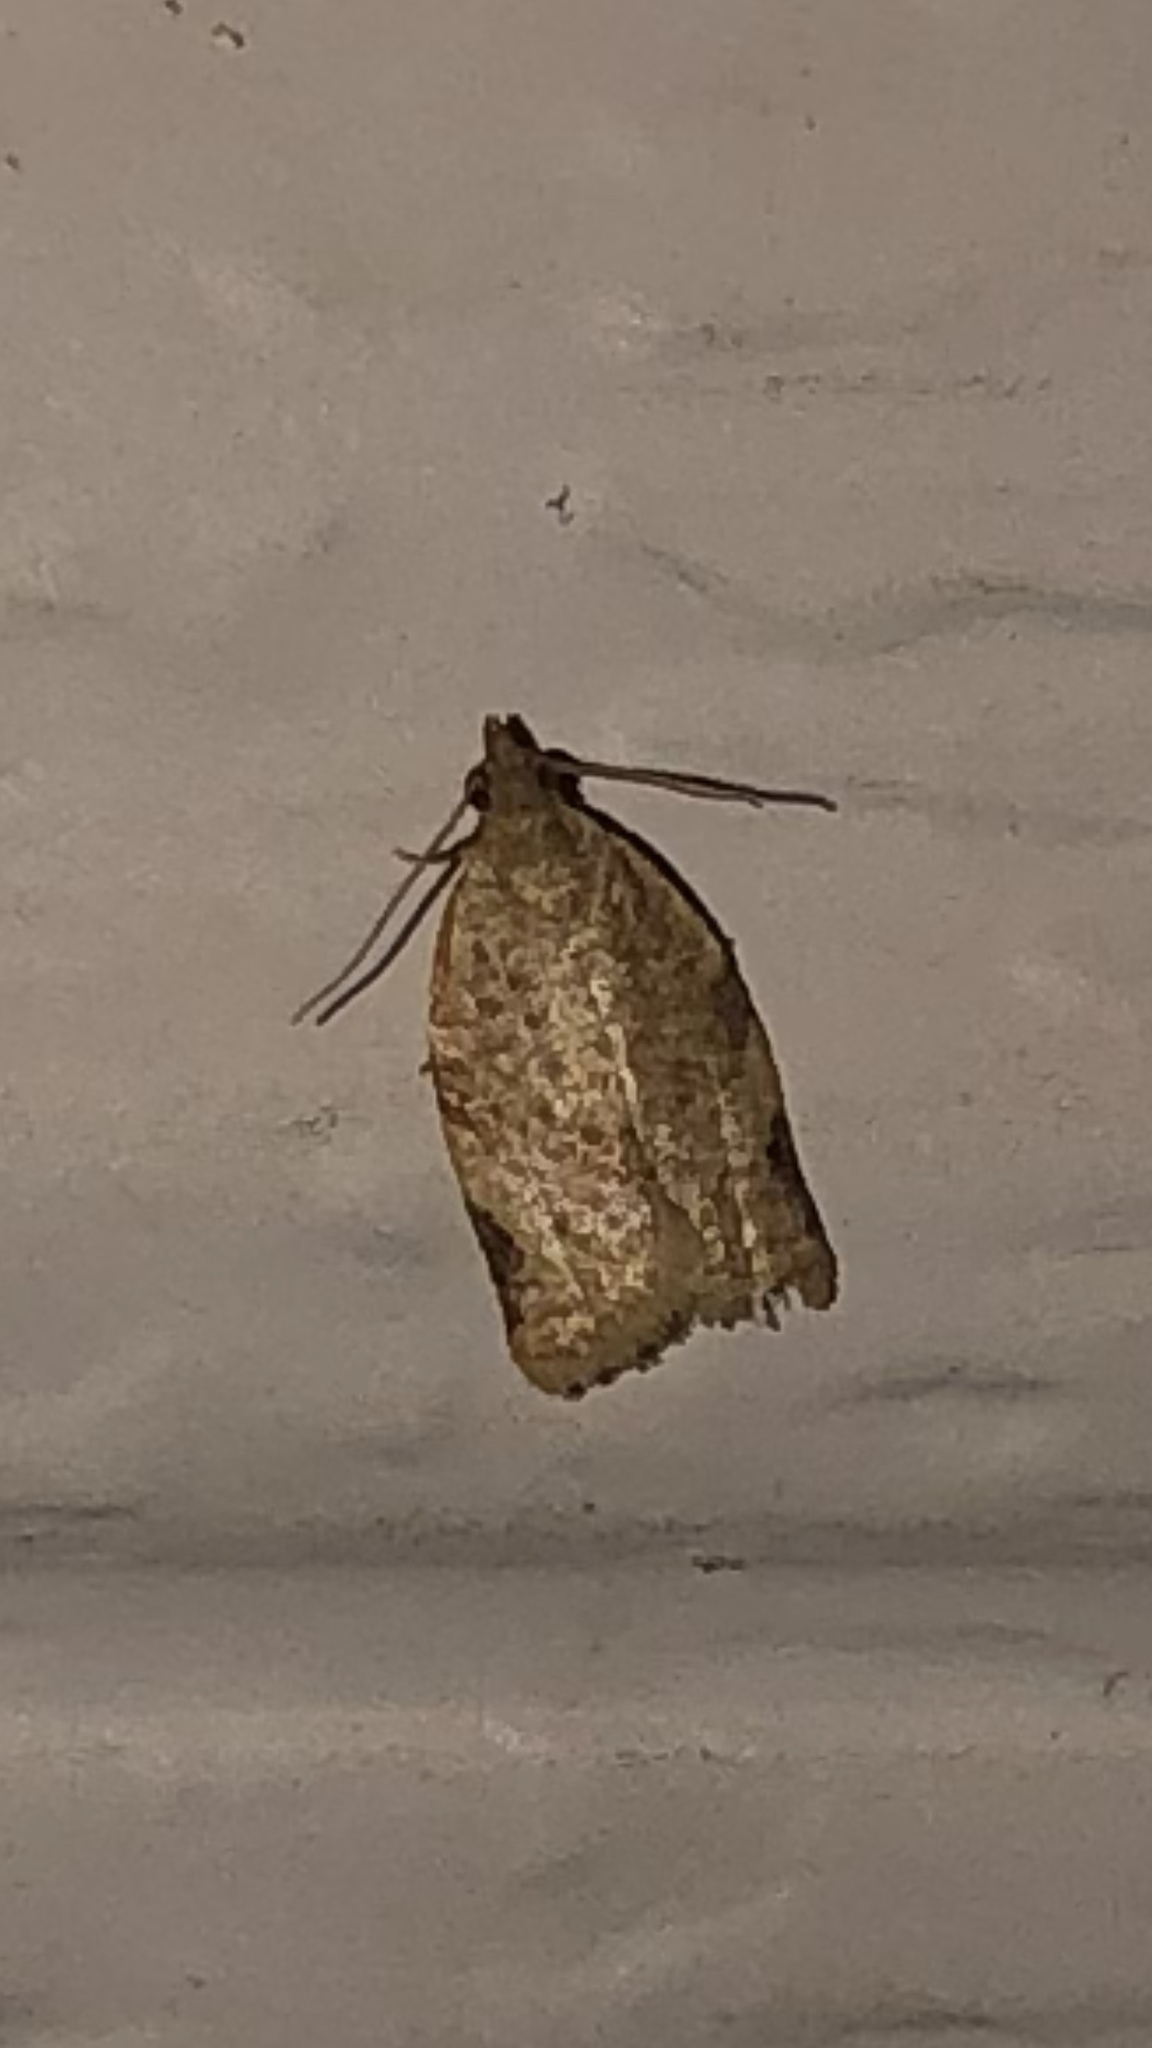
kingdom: Animalia
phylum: Arthropoda
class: Insecta
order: Lepidoptera
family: Tortricidae
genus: Clepsis
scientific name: Clepsis virescana
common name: Greenish apple moth
